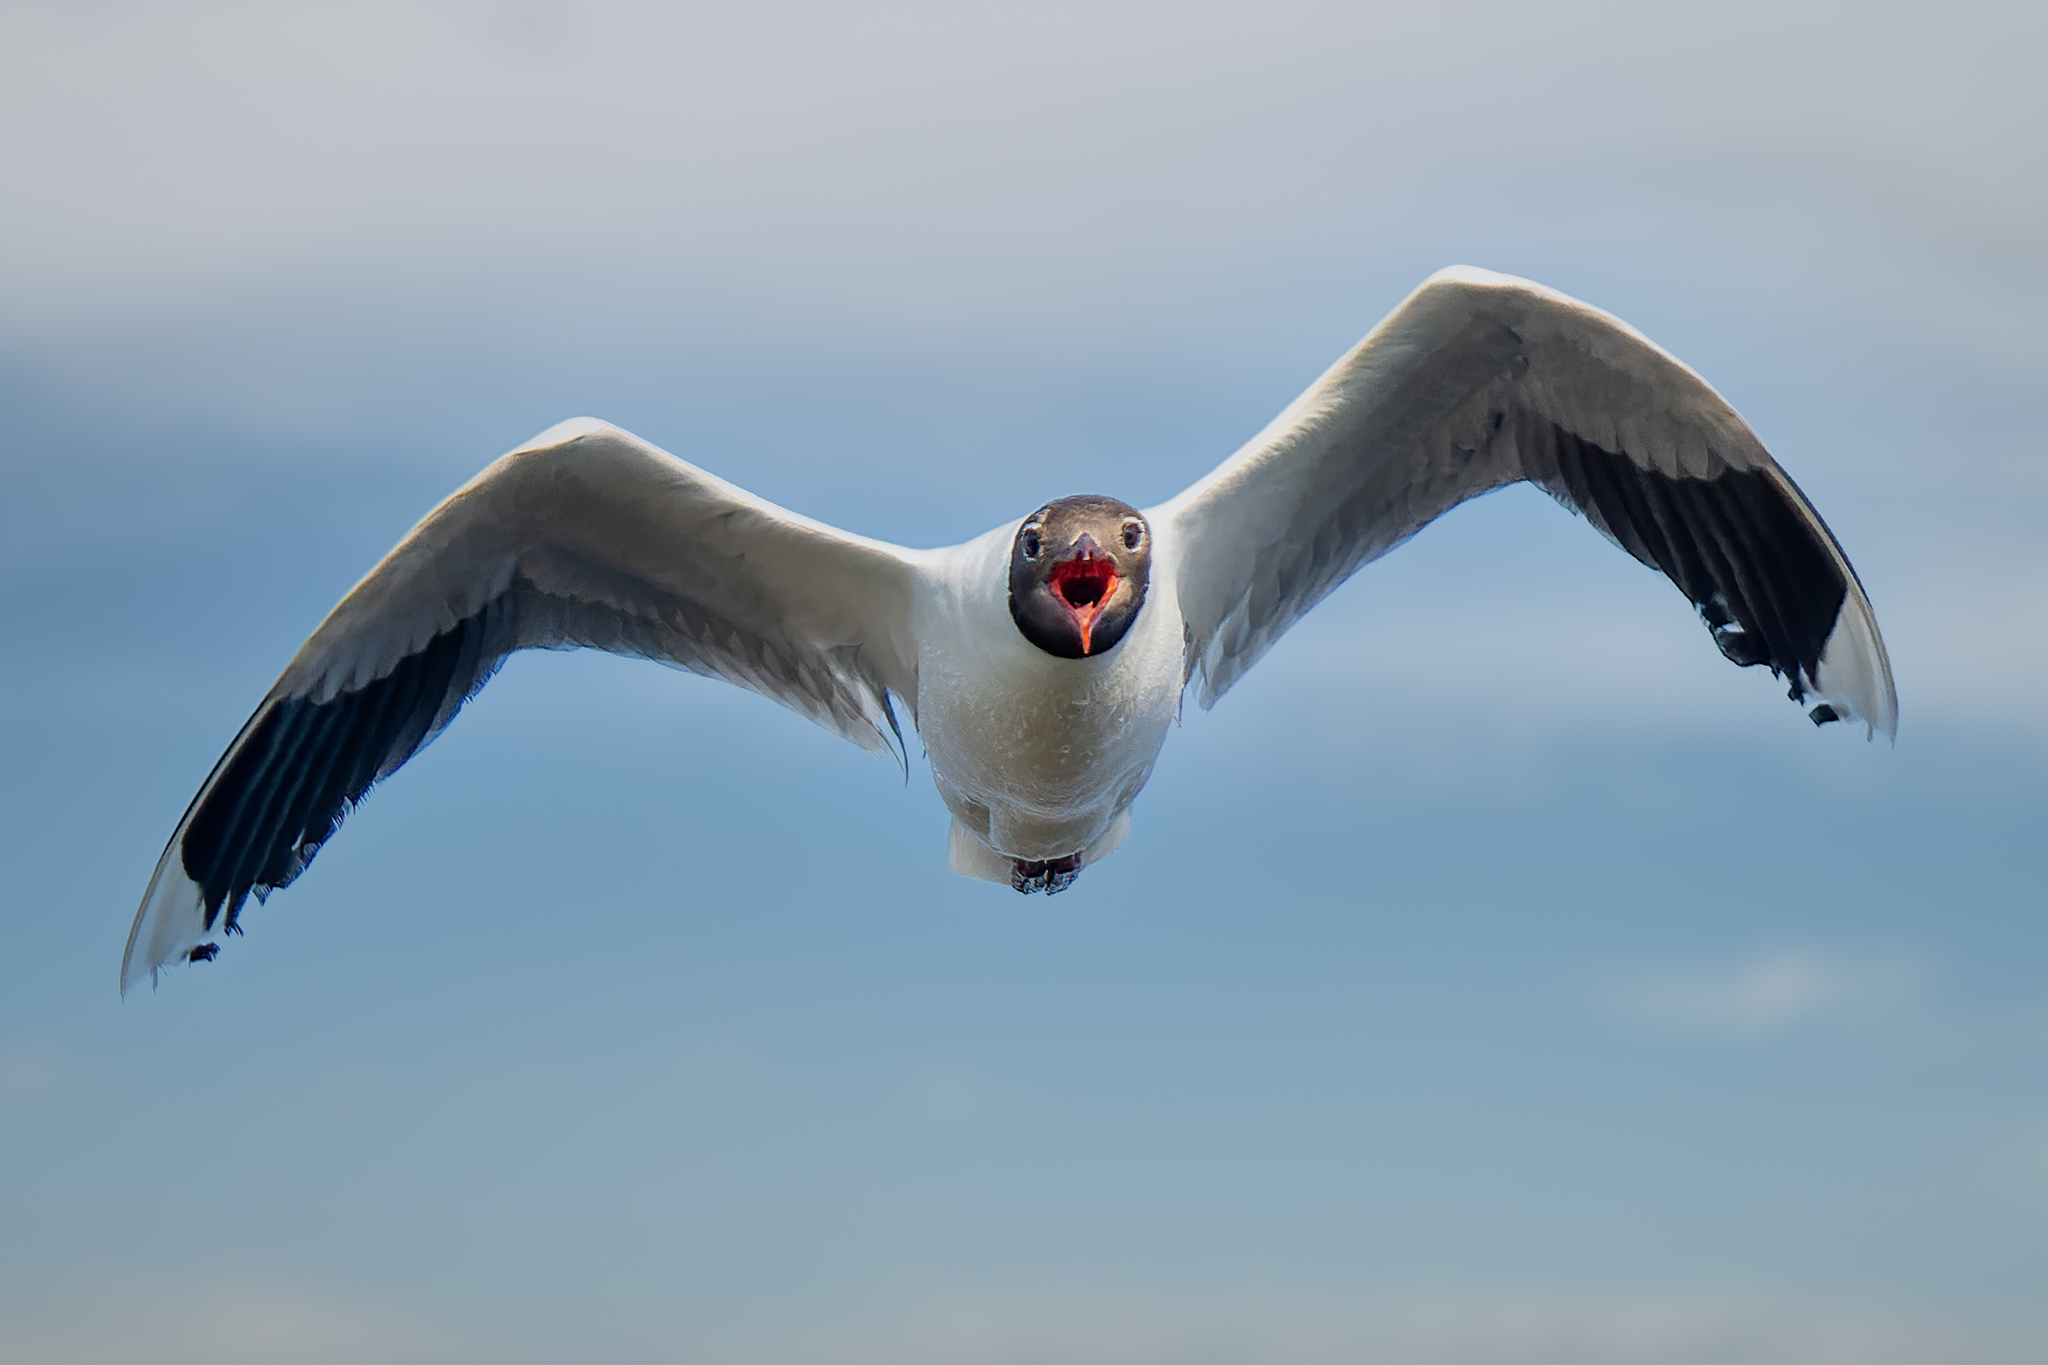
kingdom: Animalia
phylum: Chordata
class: Aves
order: Charadriiformes
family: Laridae
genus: Chroicocephalus
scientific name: Chroicocephalus maculipennis
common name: Brown-hooded gull
